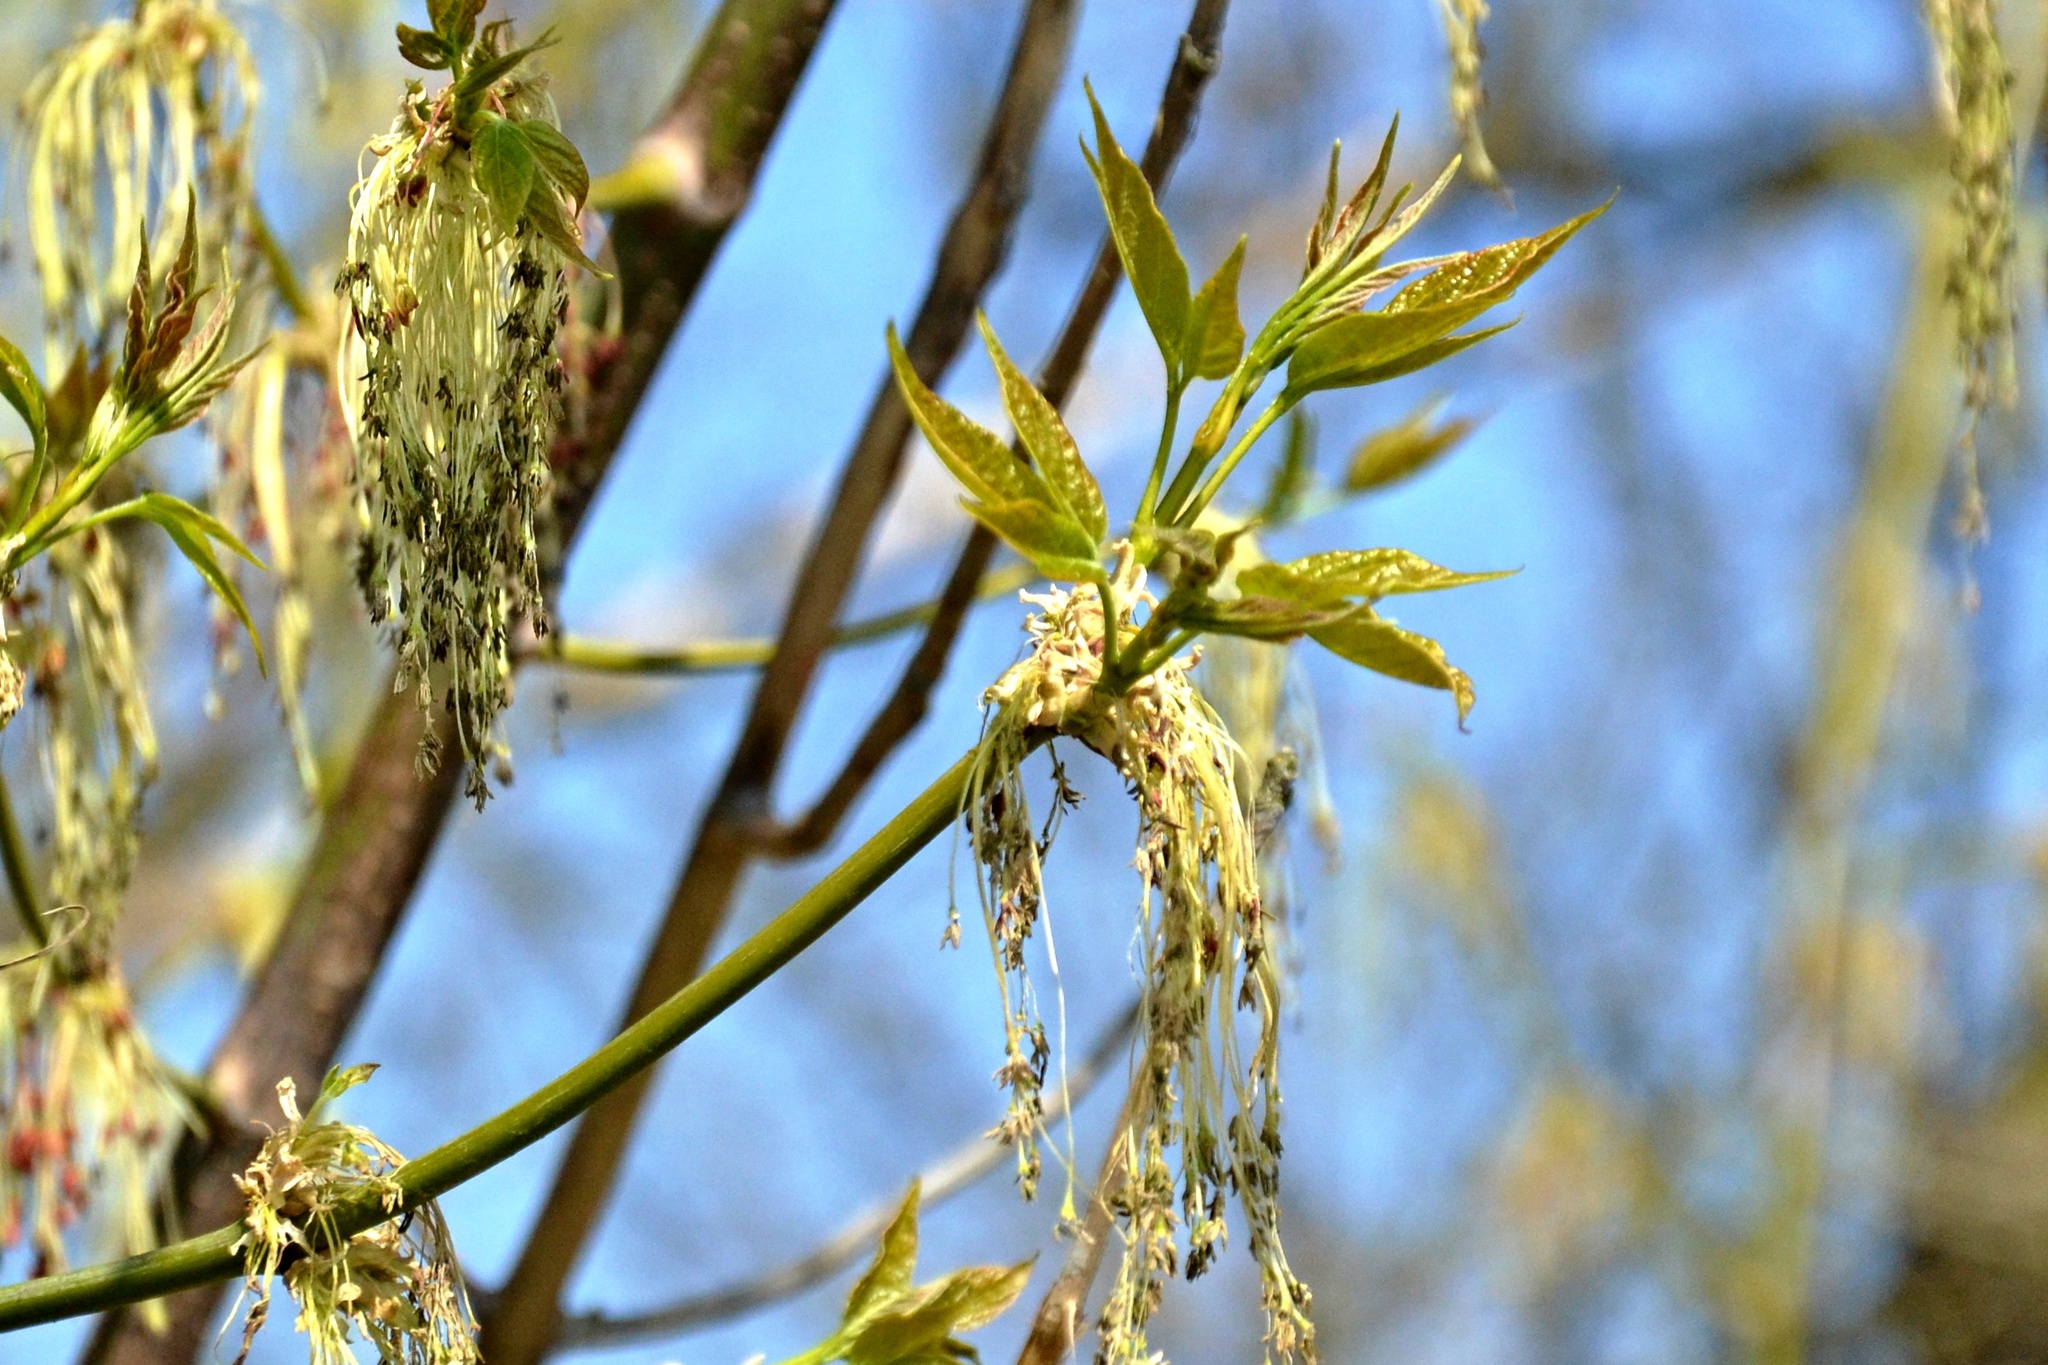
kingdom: Plantae
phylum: Tracheophyta
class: Magnoliopsida
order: Sapindales
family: Sapindaceae
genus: Acer
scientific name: Acer negundo
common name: Ashleaf maple
